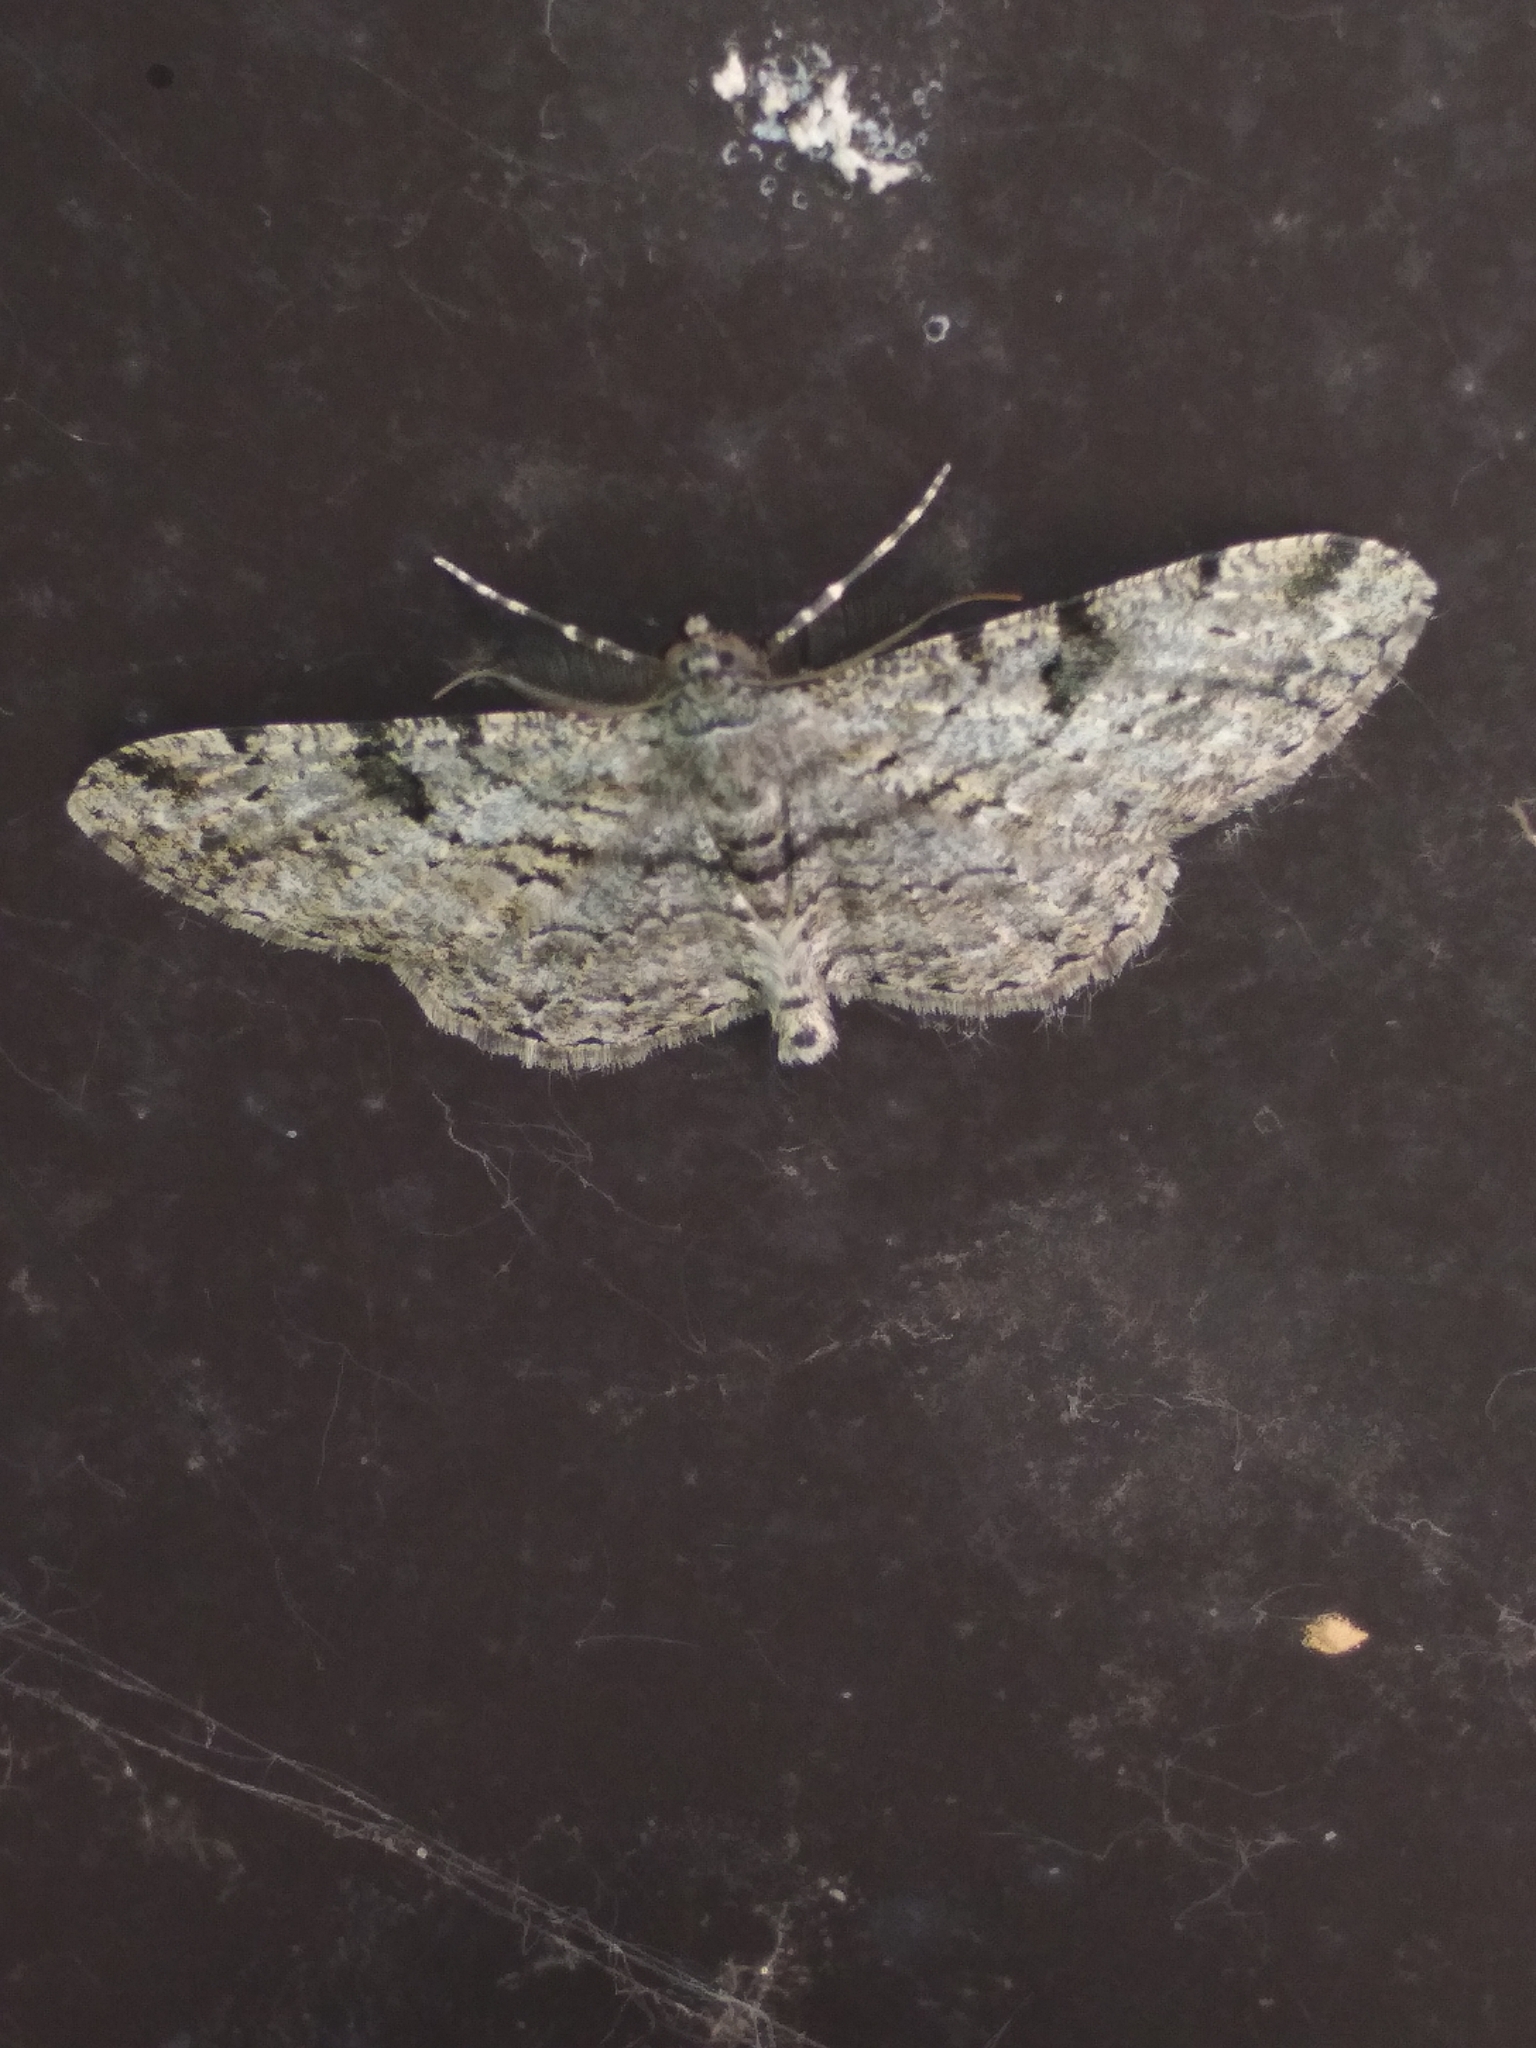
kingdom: Animalia
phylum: Arthropoda
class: Insecta
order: Lepidoptera
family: Geometridae
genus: Peribatodes
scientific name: Peribatodes rhomboidaria
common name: Willow beauty
